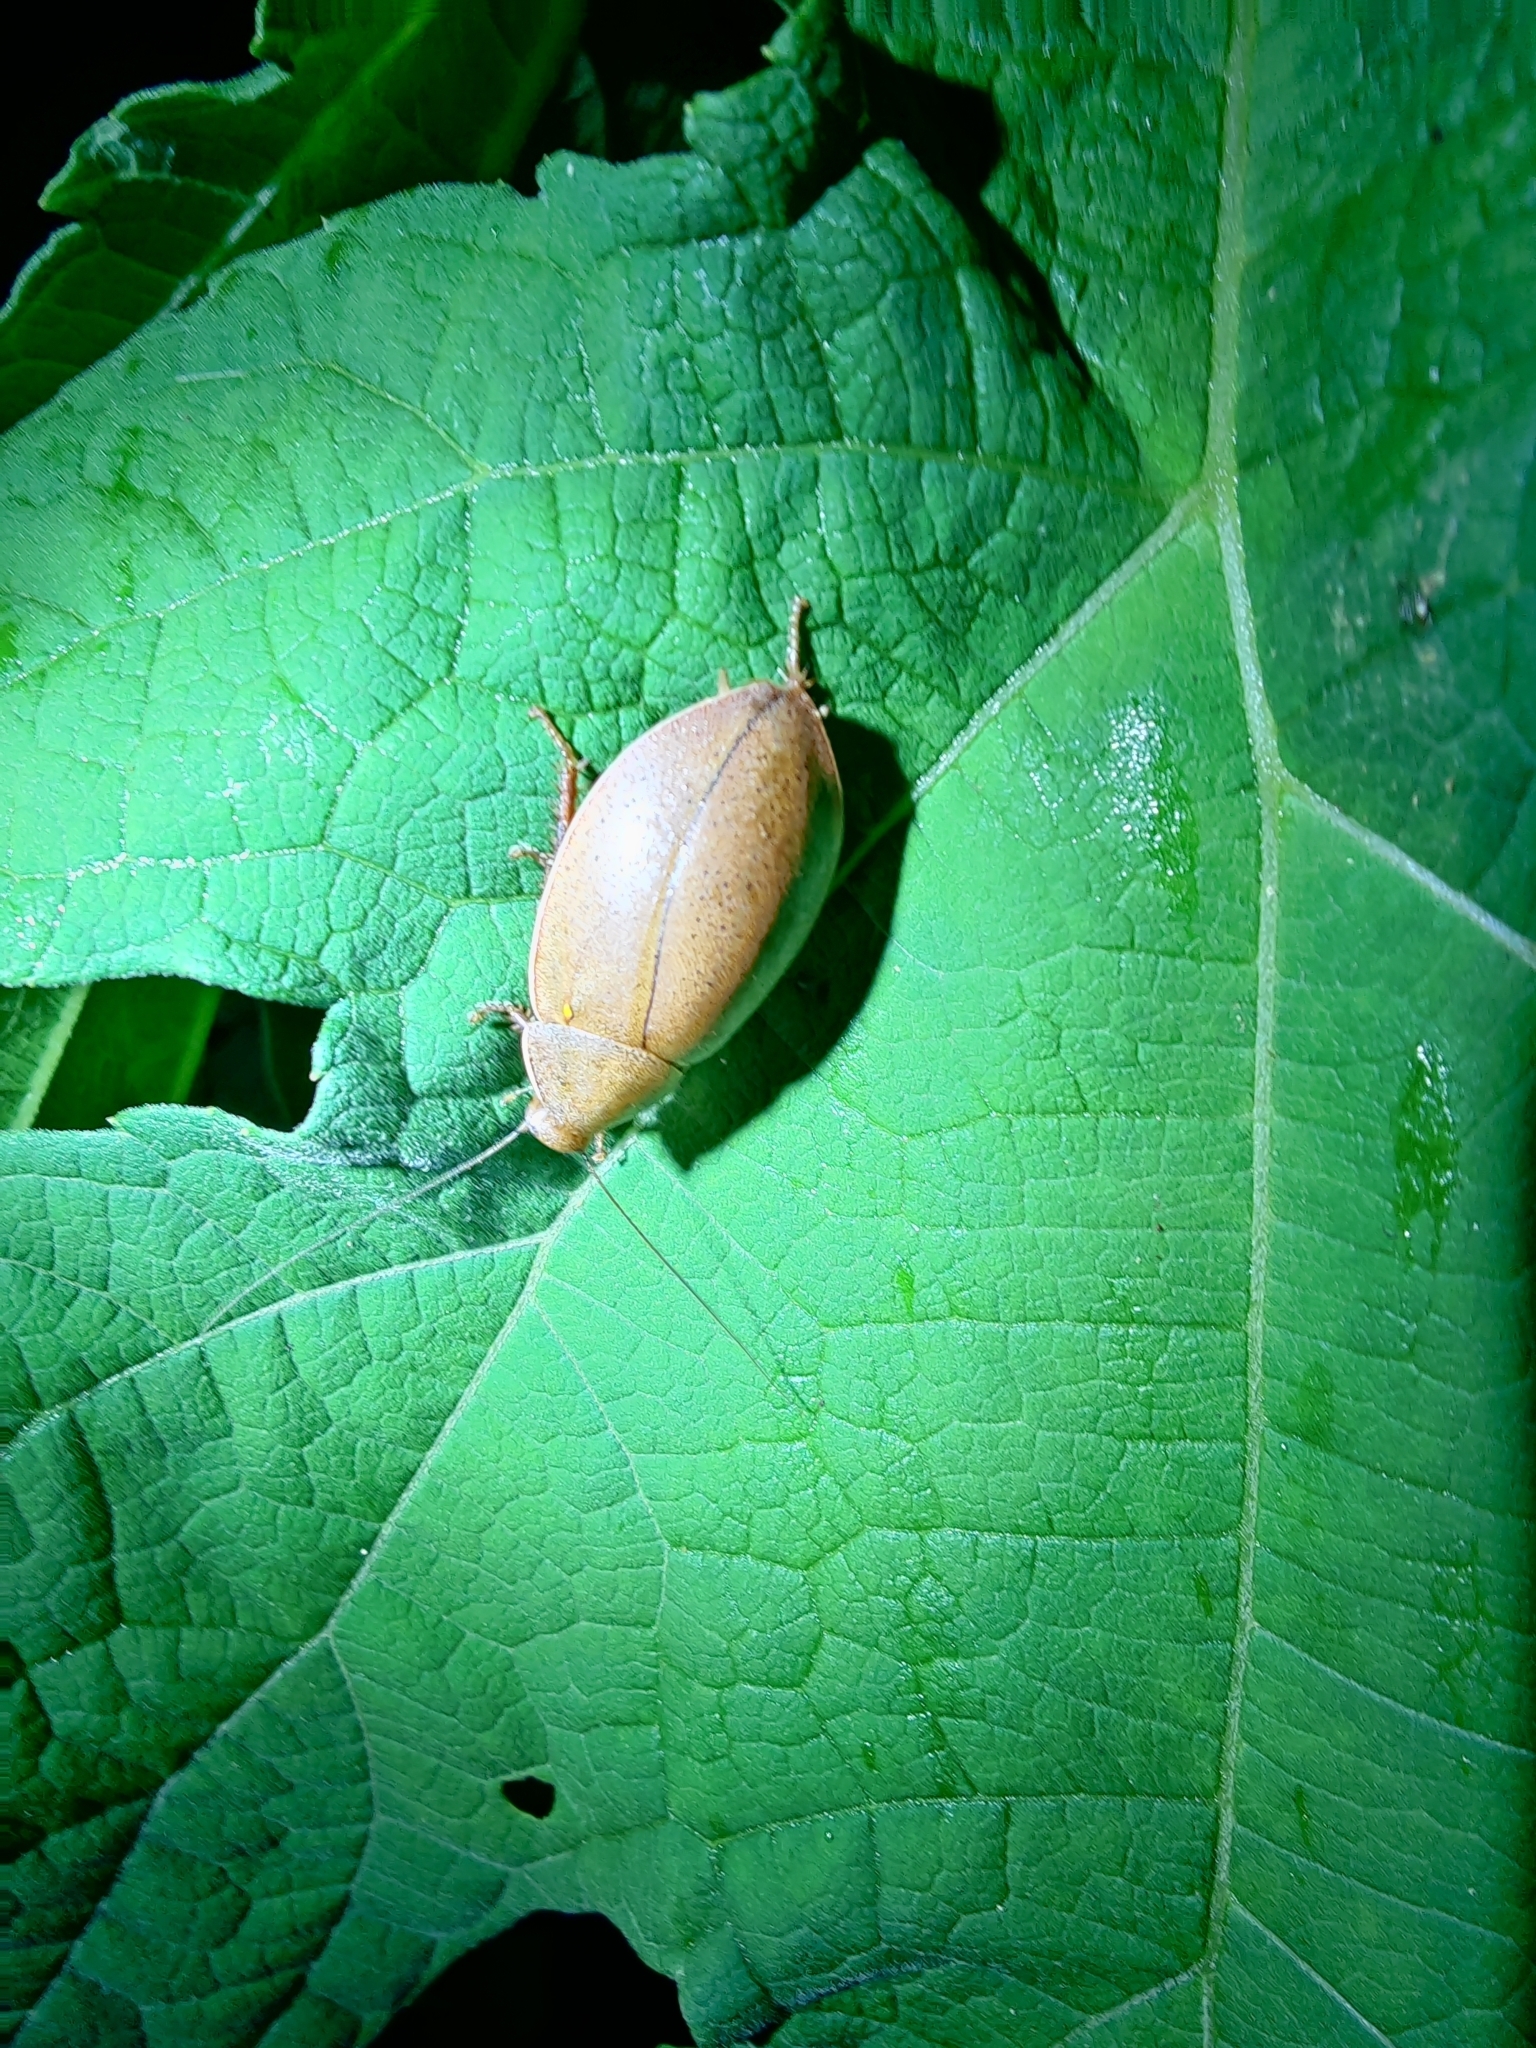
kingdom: Animalia
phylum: Arthropoda
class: Insecta
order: Blattodea
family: Blaberidae
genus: Thorax
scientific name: Thorax porcellana
